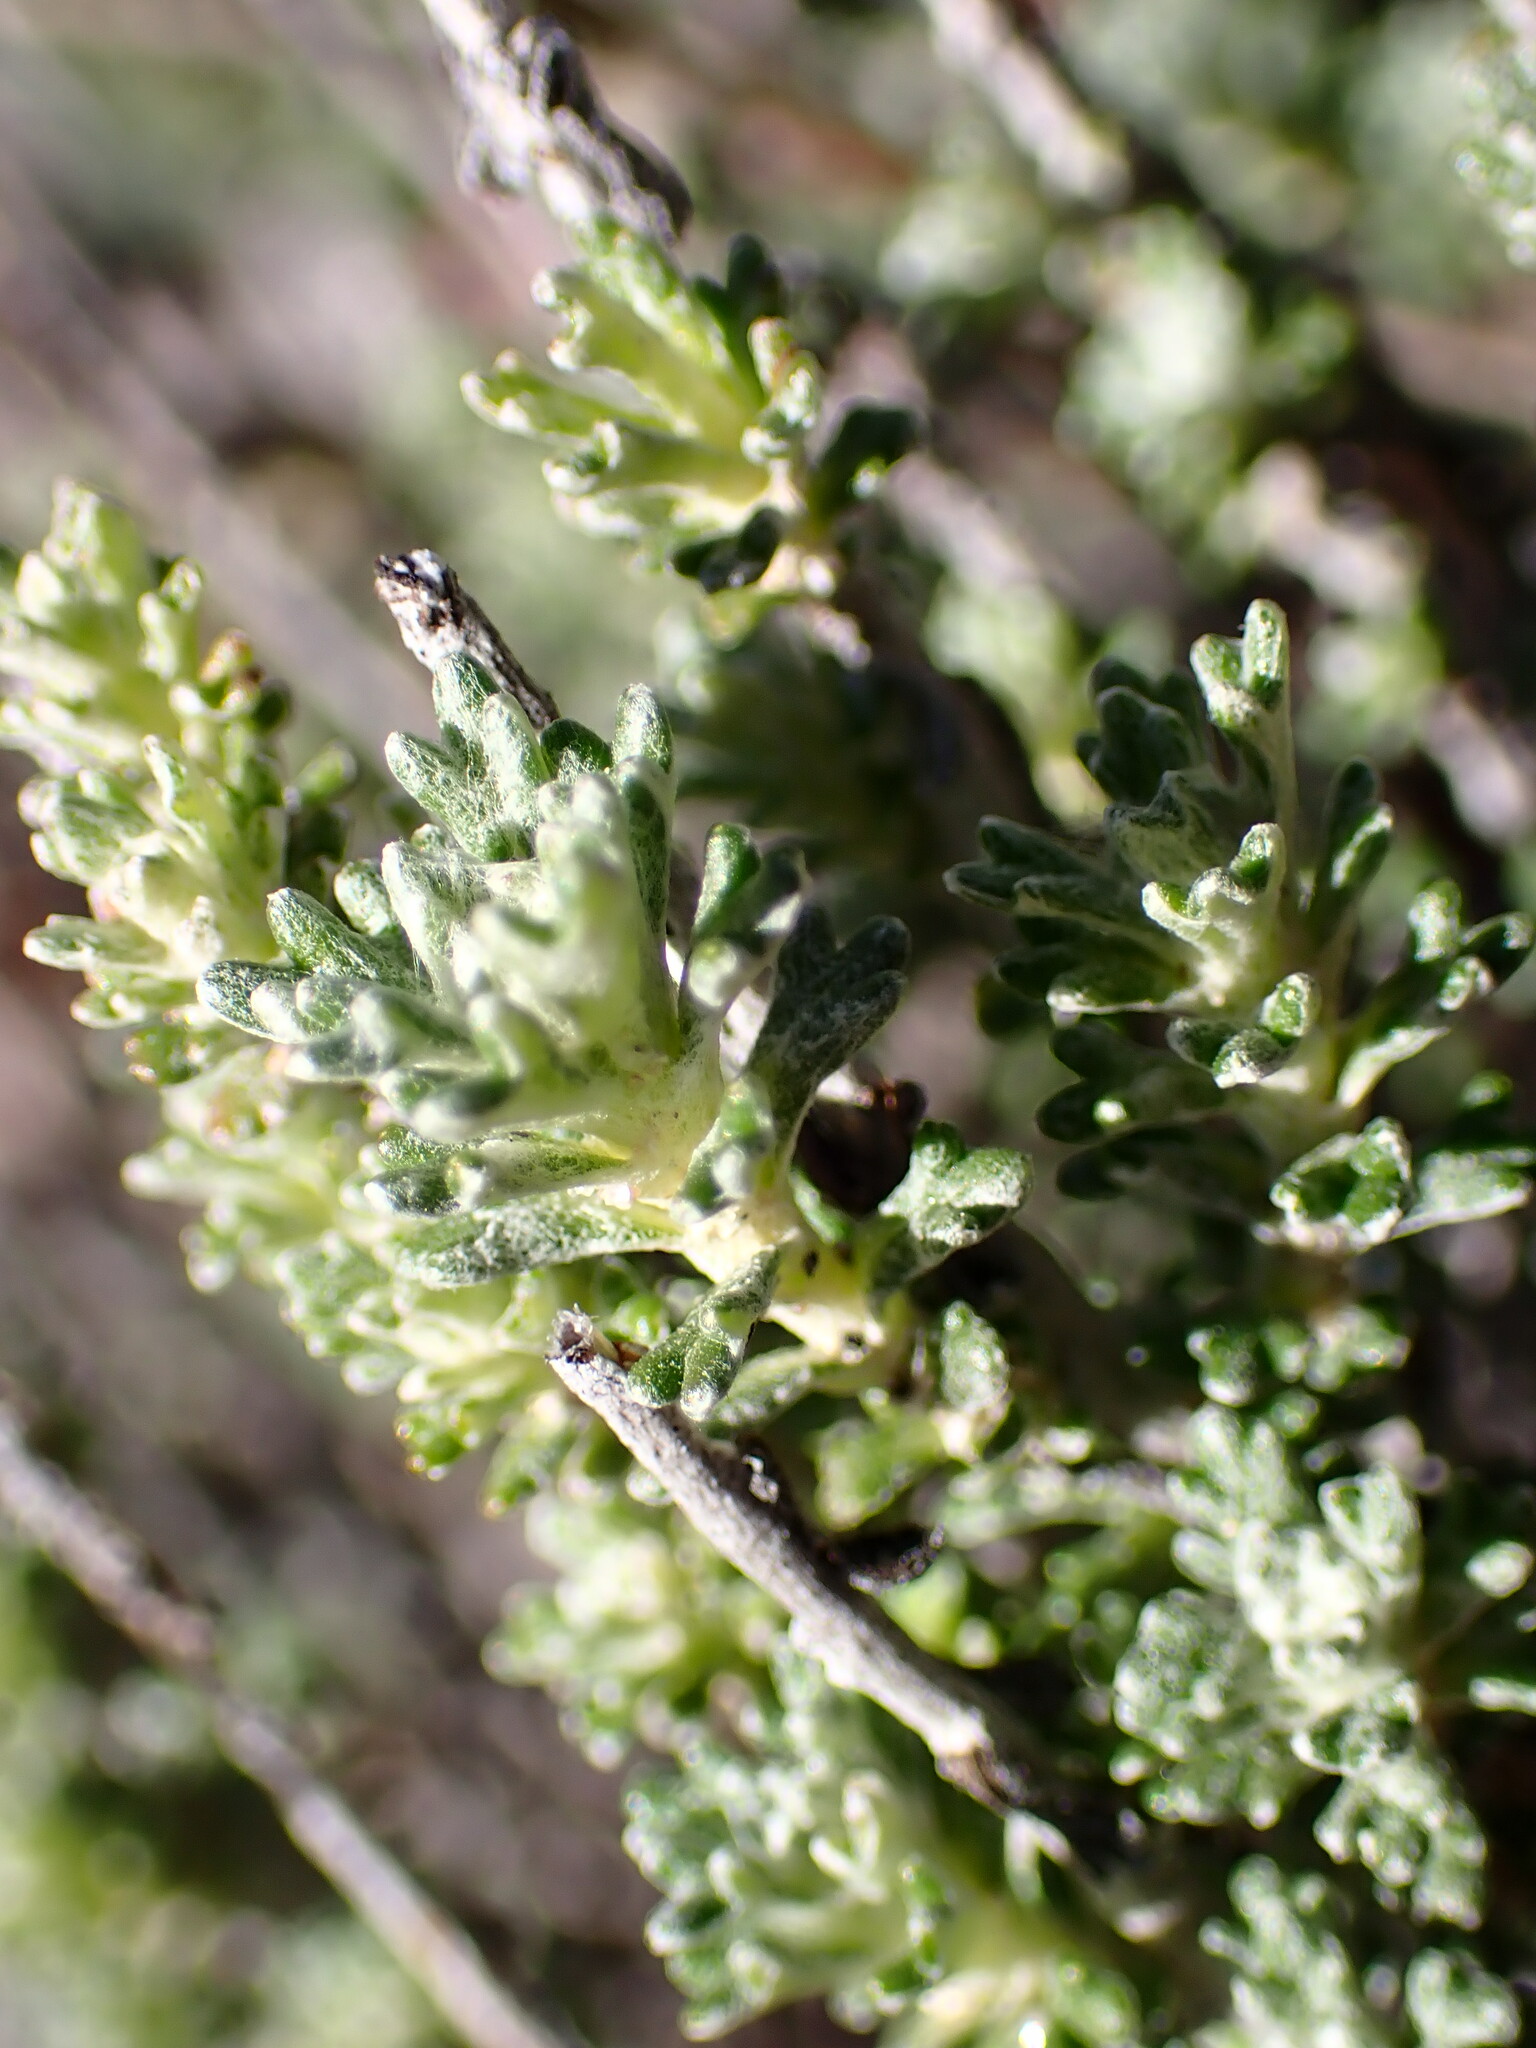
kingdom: Plantae
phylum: Tracheophyta
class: Magnoliopsida
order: Asterales
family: Asteraceae
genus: Eriophyllum
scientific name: Eriophyllum confertiflorum
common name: Golden-yarrow
